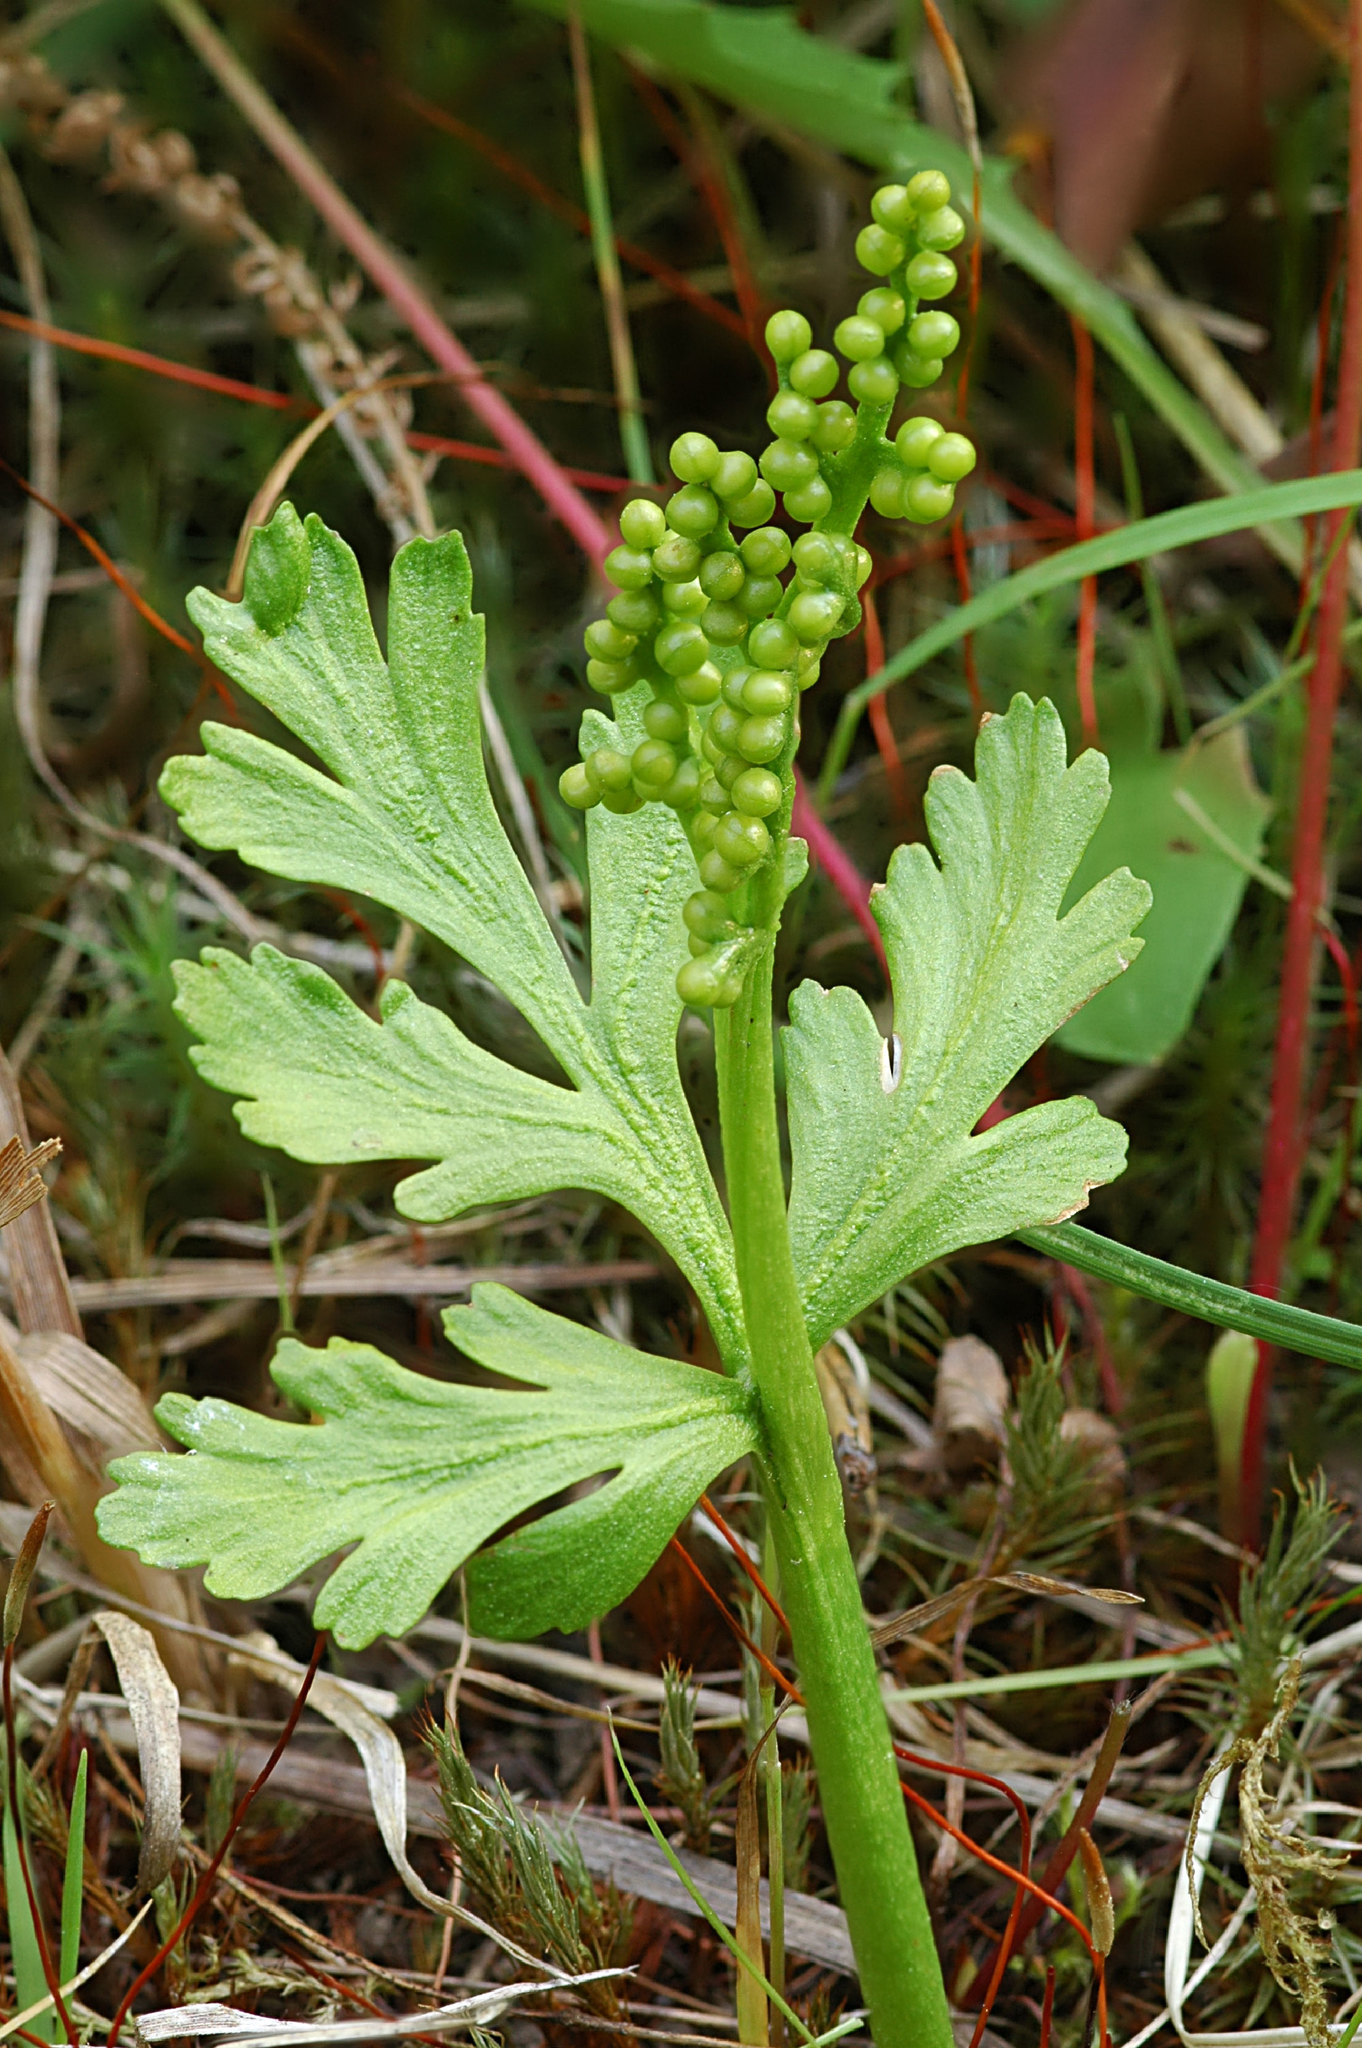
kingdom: Plantae
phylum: Tracheophyta
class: Polypodiopsida
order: Ophioglossales
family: Ophioglossaceae
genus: Botrychium
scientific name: Botrychium lanceolatum
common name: Lance-leaved moonwort
